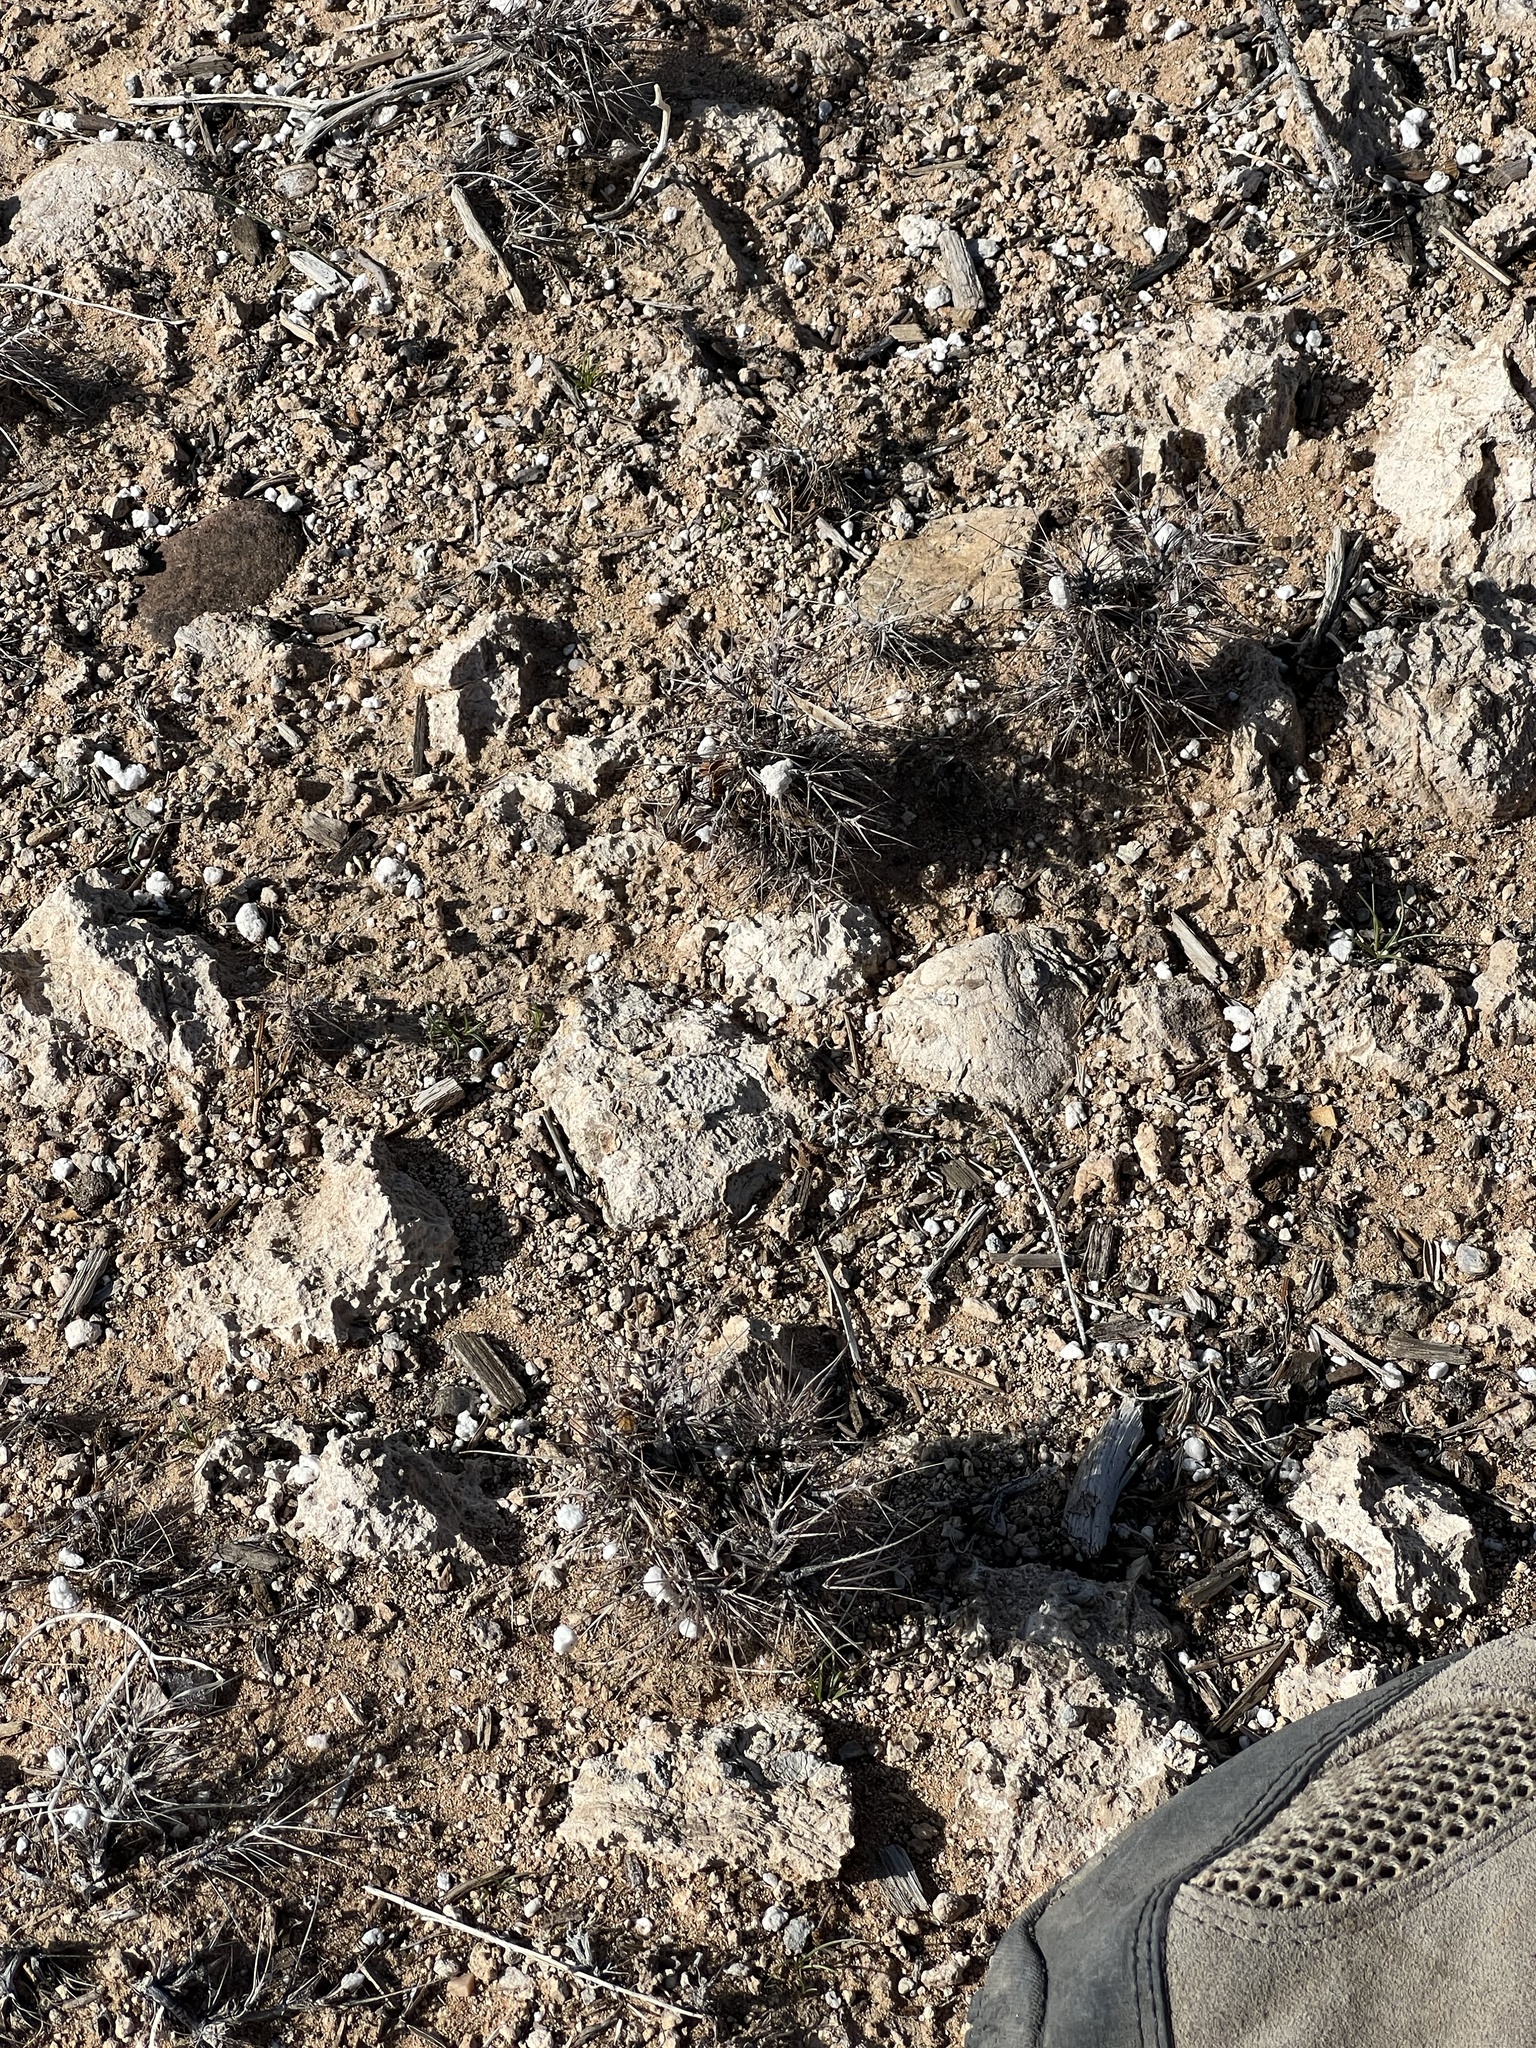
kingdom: Plantae
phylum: Tracheophyta
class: Magnoliopsida
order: Caryophyllales
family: Polygonaceae
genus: Chorizanthe
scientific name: Chorizanthe rigida
